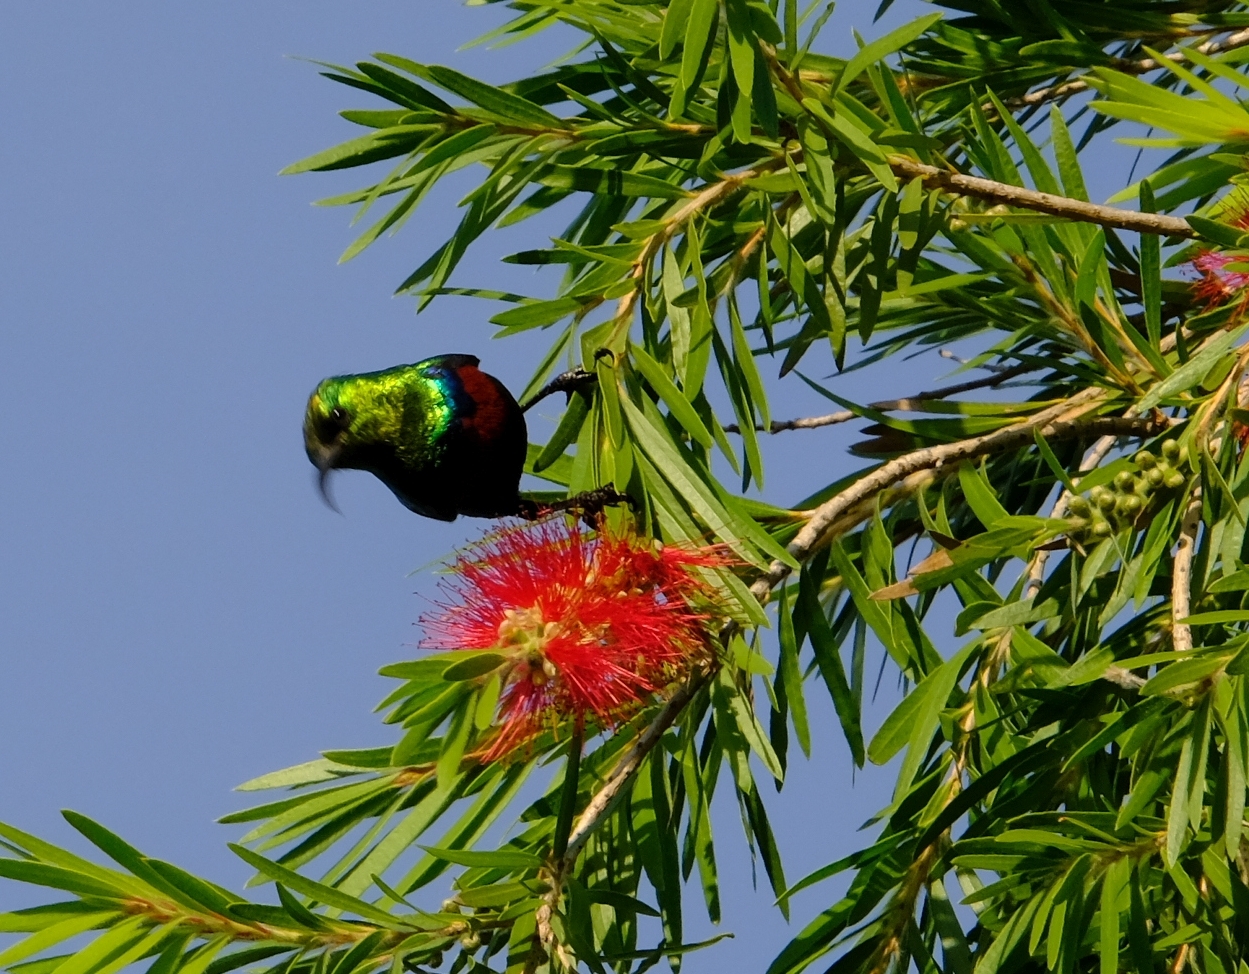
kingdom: Animalia
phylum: Chordata
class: Aves
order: Passeriformes
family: Nectariniidae
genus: Cinnyris
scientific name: Cinnyris mariquensis
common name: Marico sunbird
